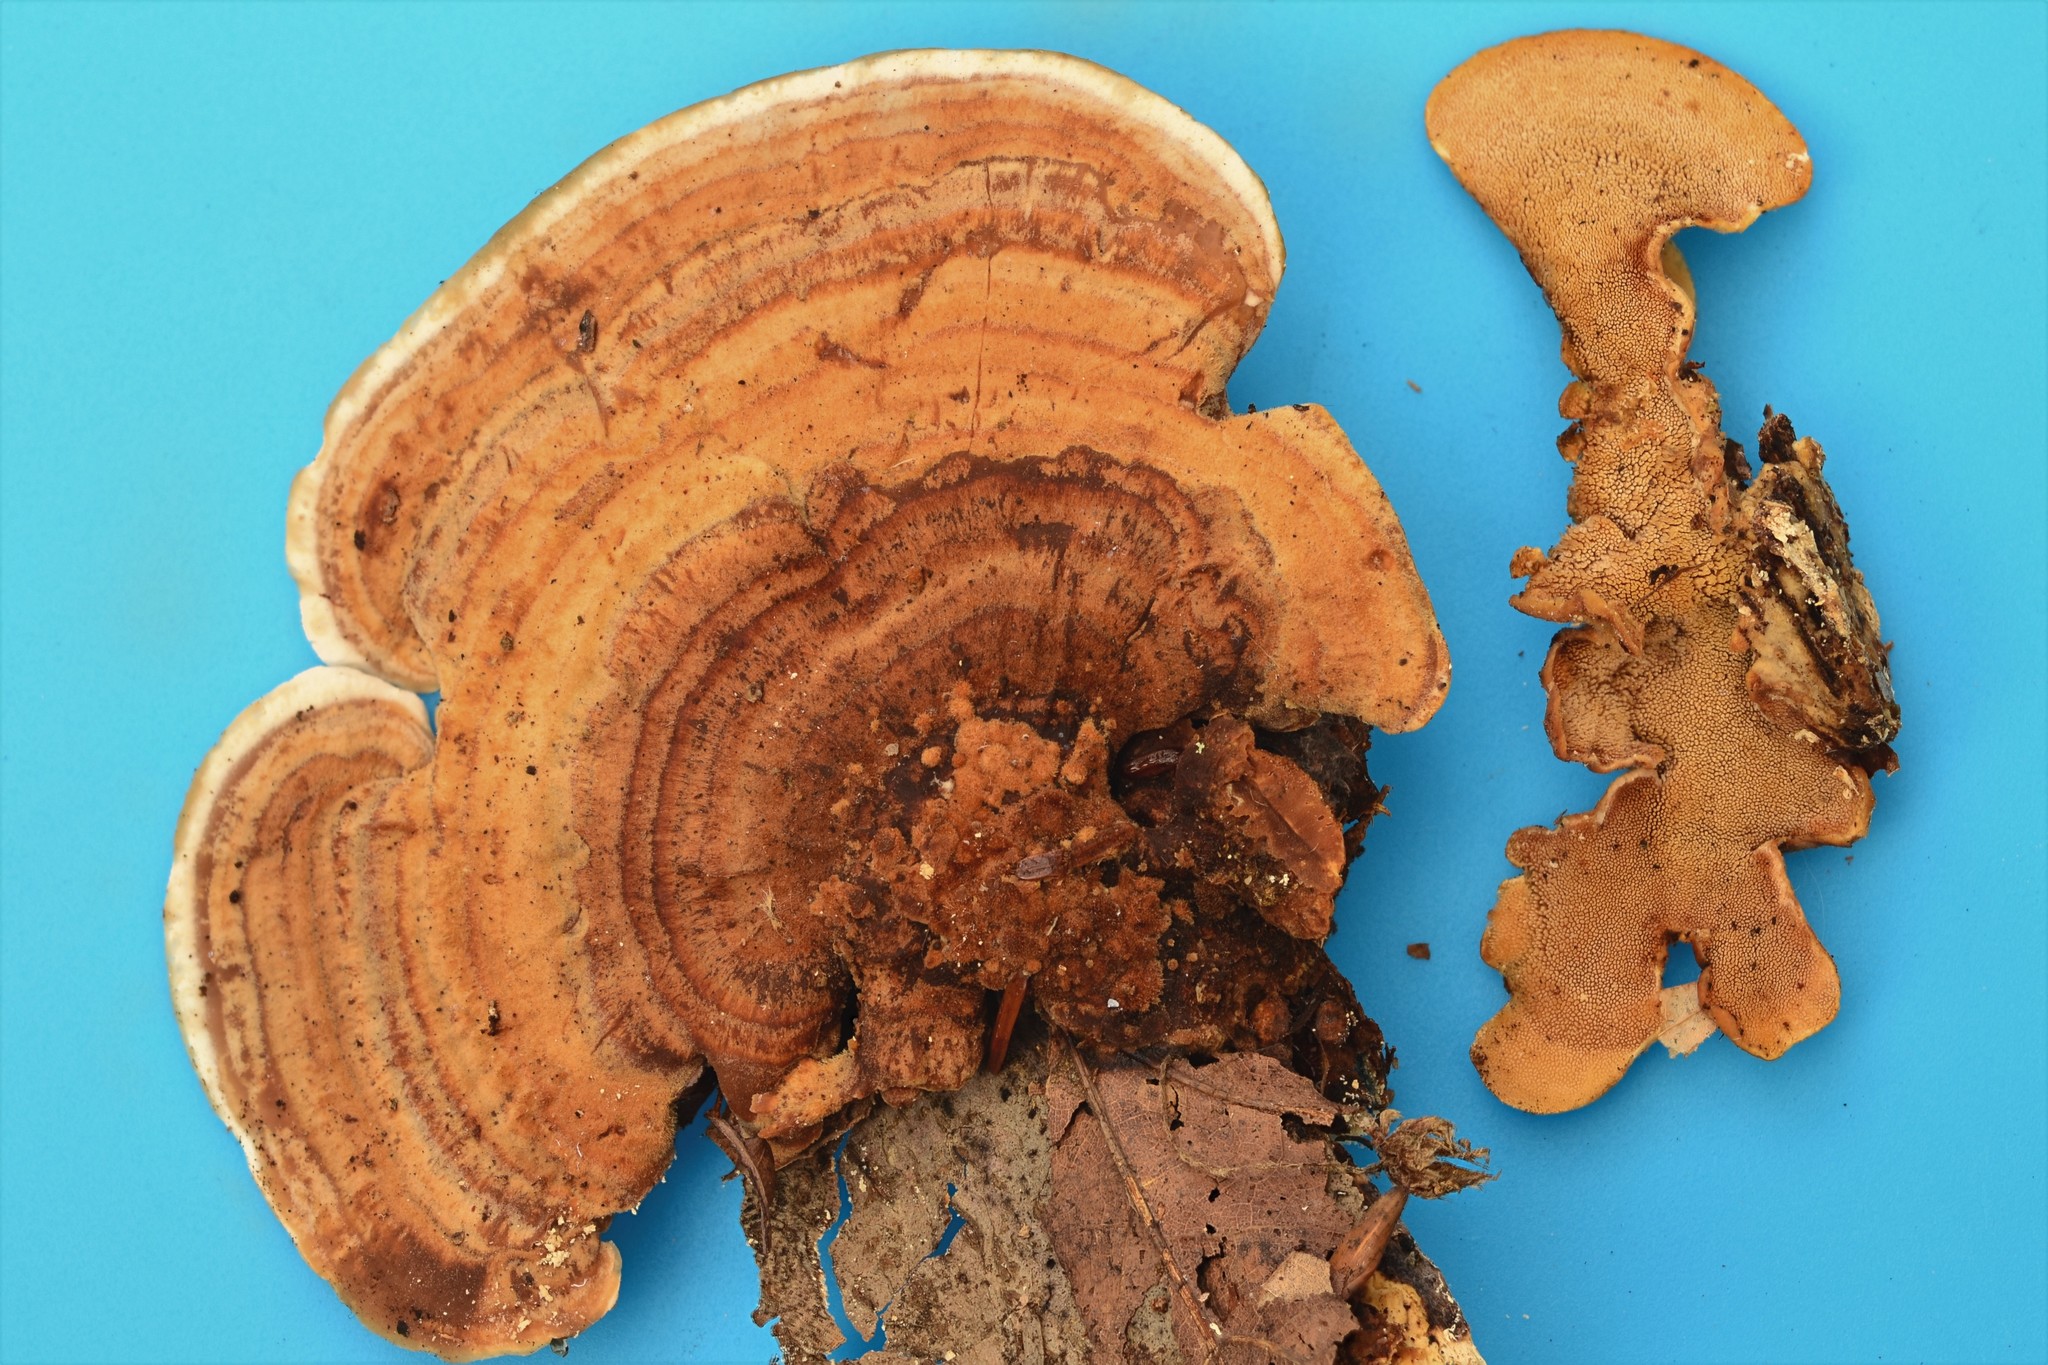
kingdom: Fungi
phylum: Basidiomycota
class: Agaricomycetes
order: Polyporales
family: Steccherinaceae
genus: Steccherinum
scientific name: Steccherinum rawakense
